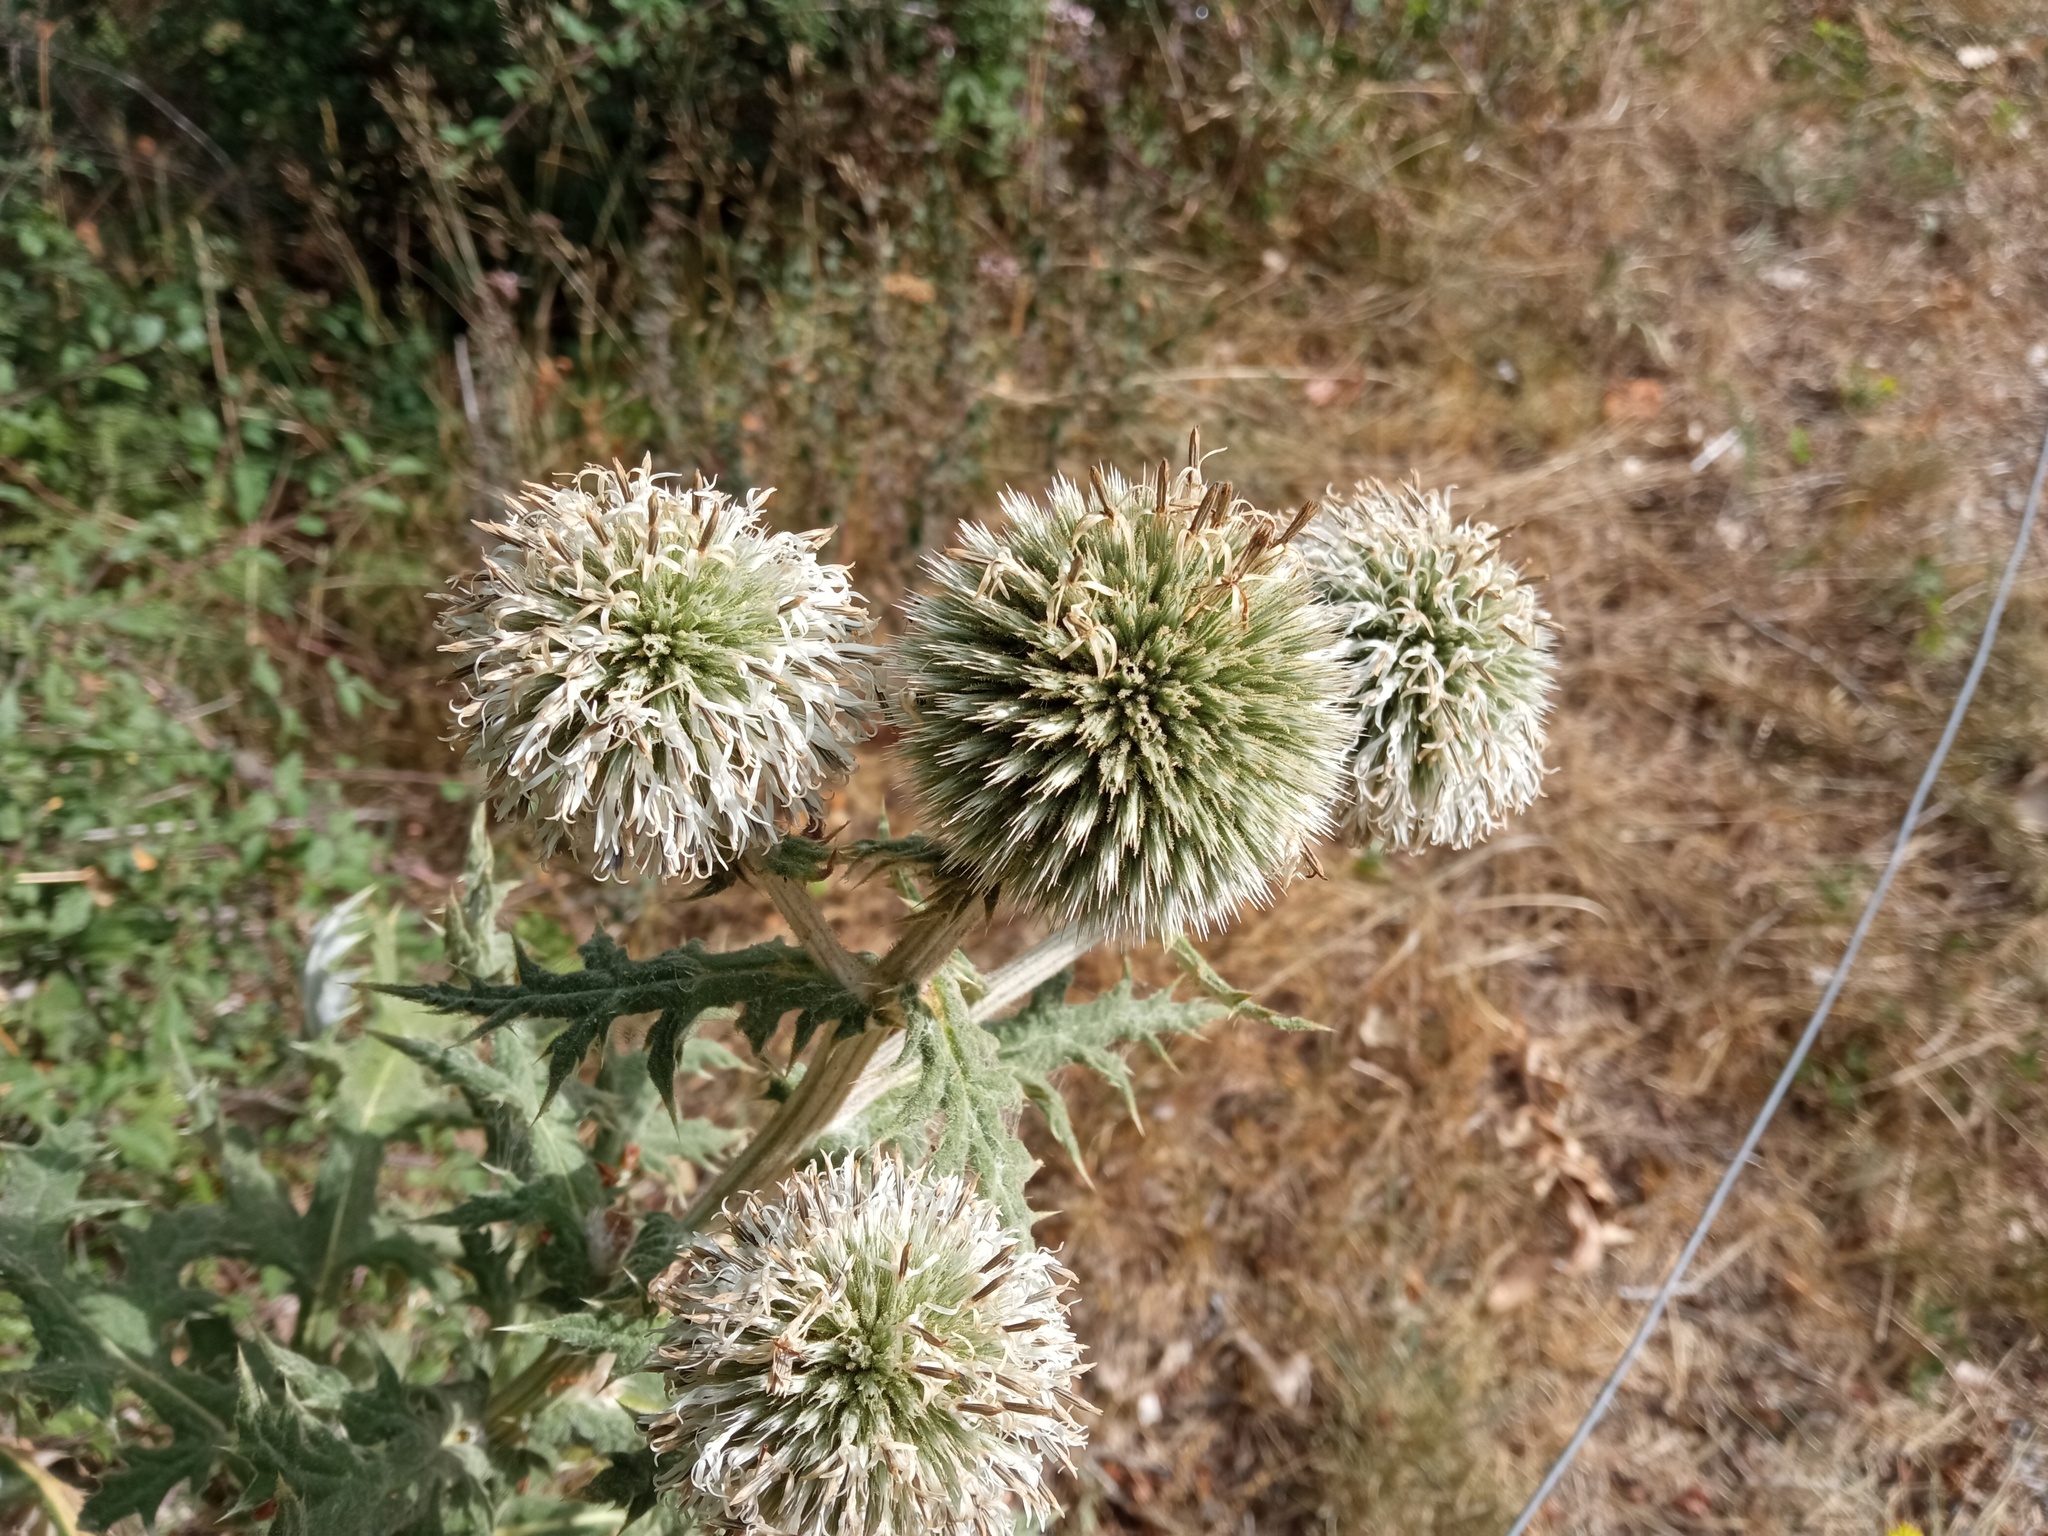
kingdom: Plantae
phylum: Tracheophyta
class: Magnoliopsida
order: Asterales
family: Asteraceae
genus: Echinops
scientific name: Echinops sphaerocephalus
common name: Glandular globe-thistle
